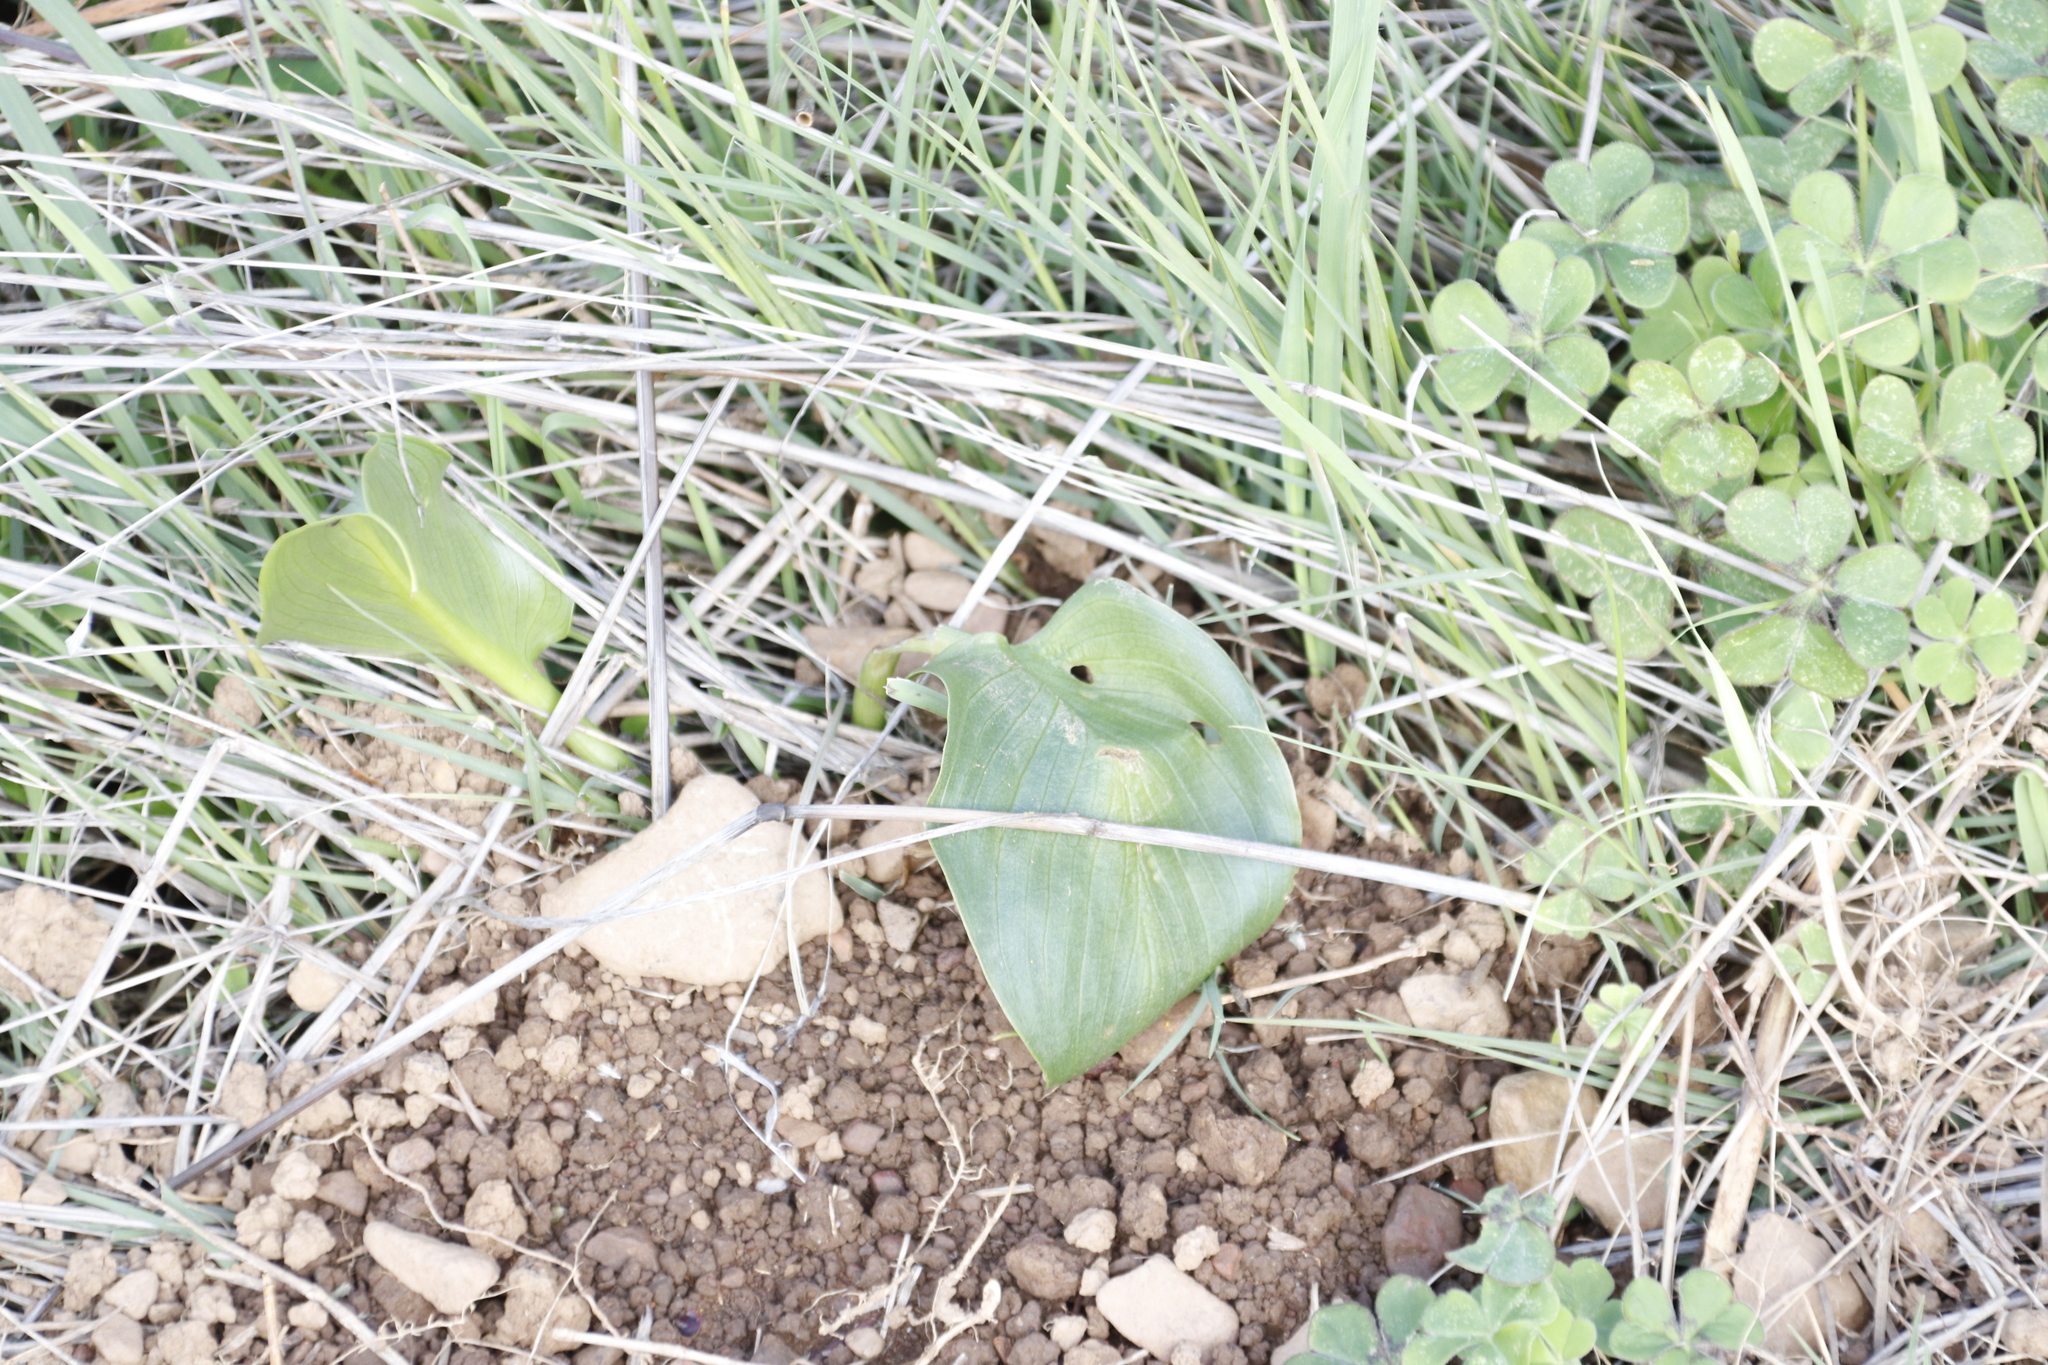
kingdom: Plantae
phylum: Tracheophyta
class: Liliopsida
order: Alismatales
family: Araceae
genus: Zantedeschia
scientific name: Zantedeschia aethiopica
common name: Altar-lily
